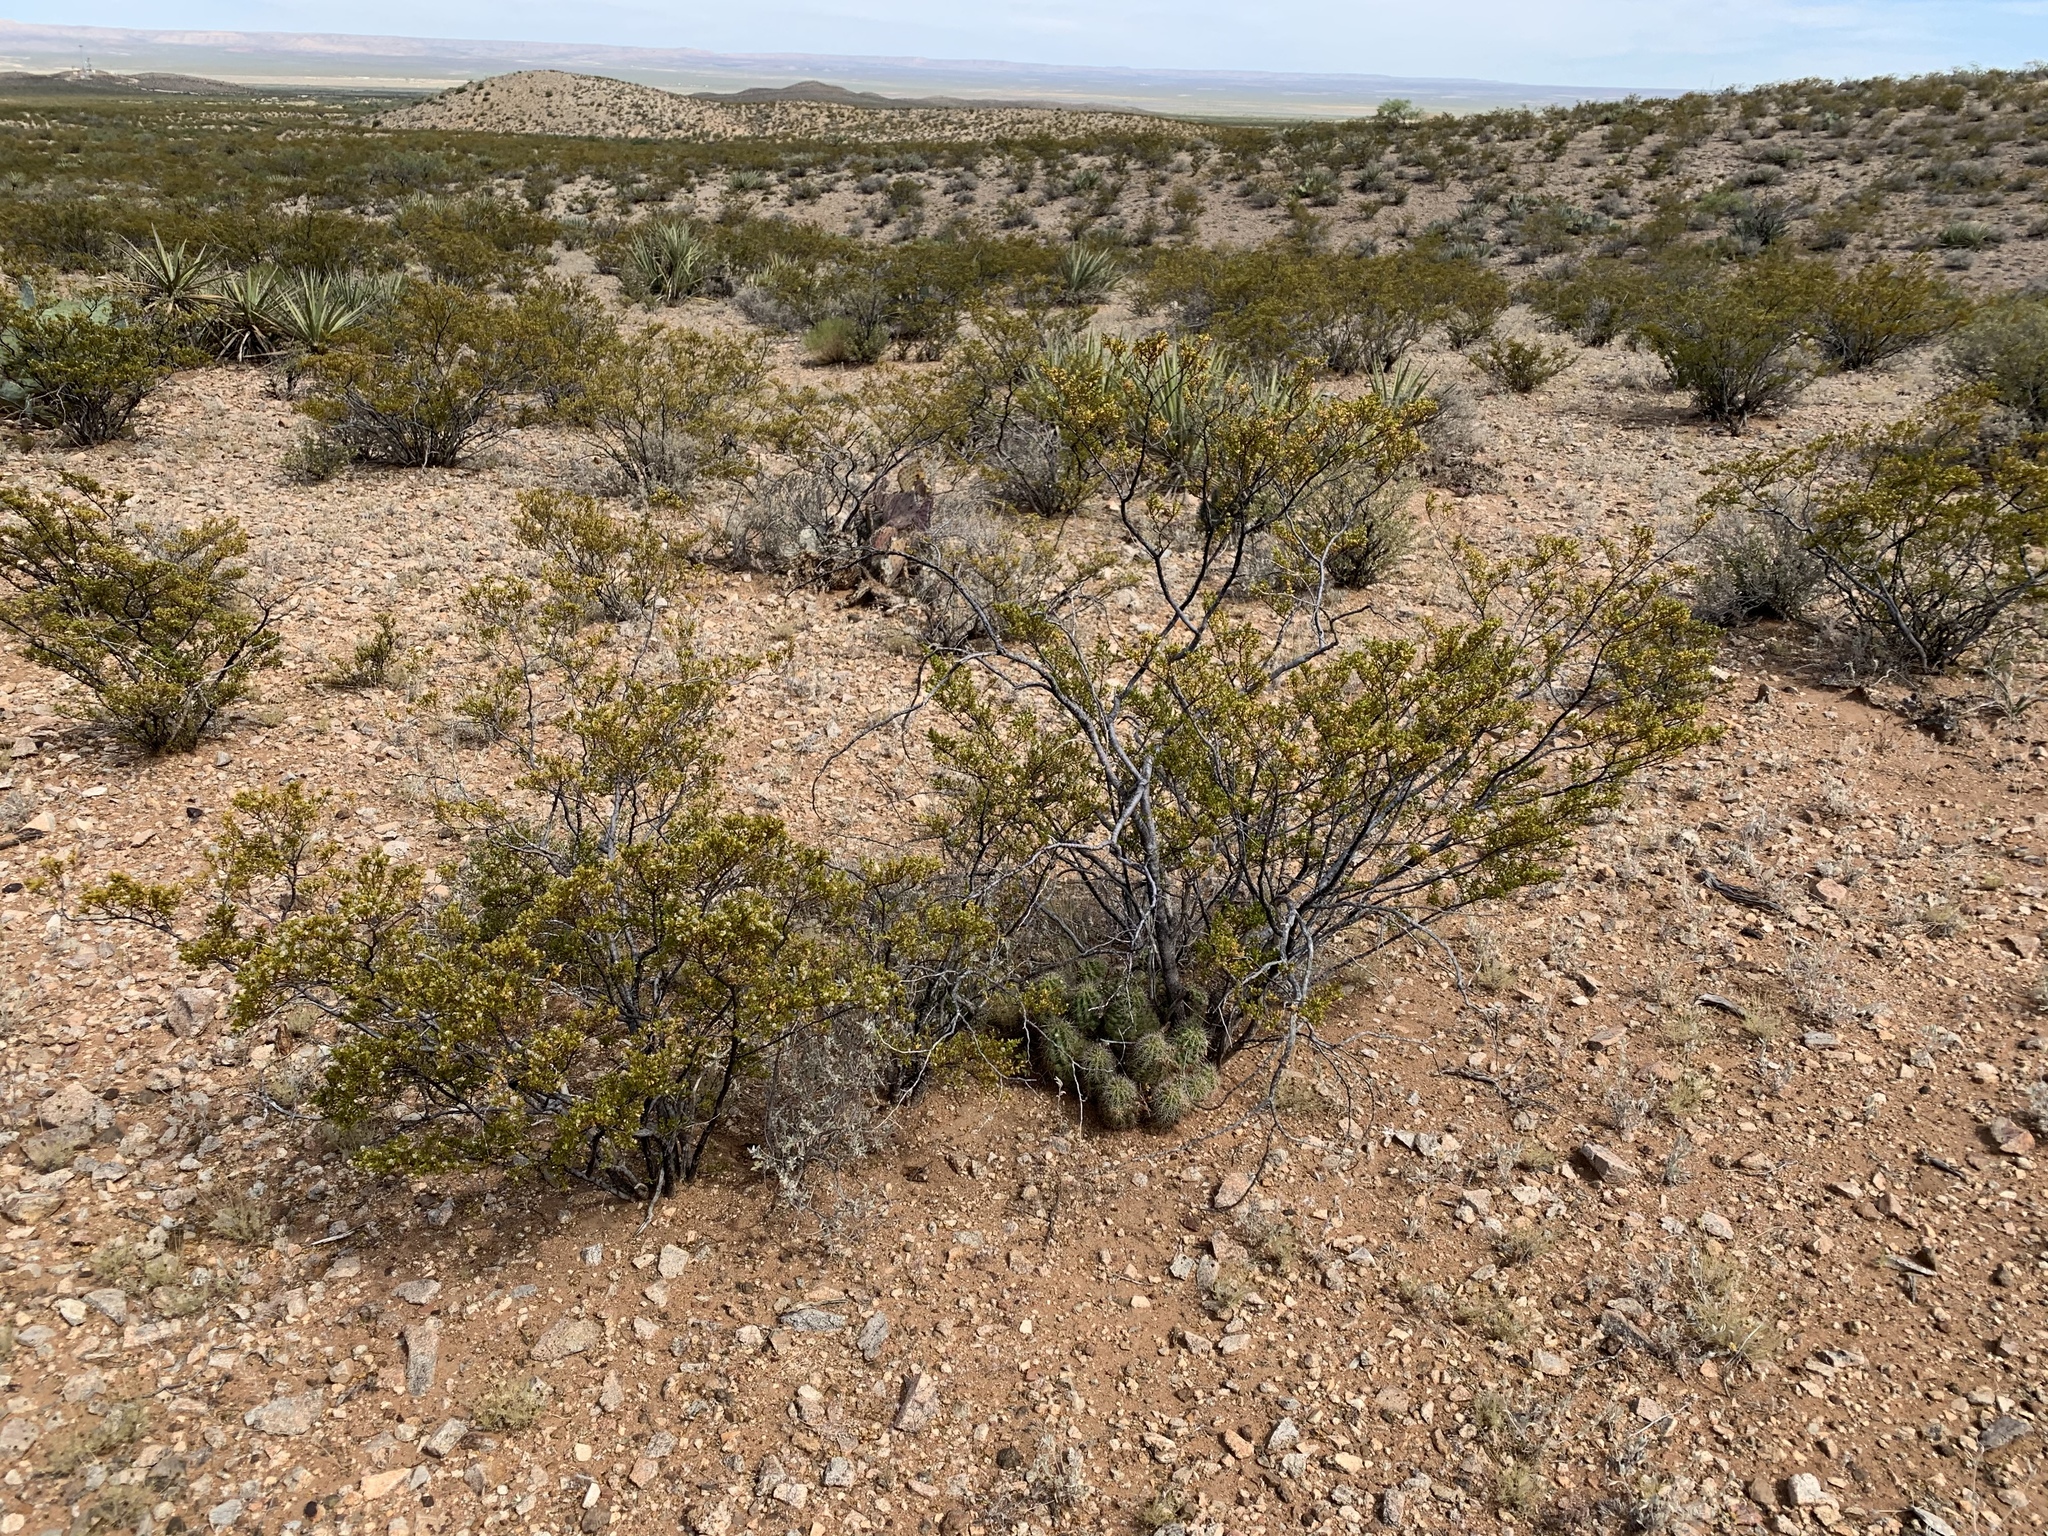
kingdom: Plantae
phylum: Tracheophyta
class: Magnoliopsida
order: Zygophyllales
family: Zygophyllaceae
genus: Larrea
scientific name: Larrea tridentata
